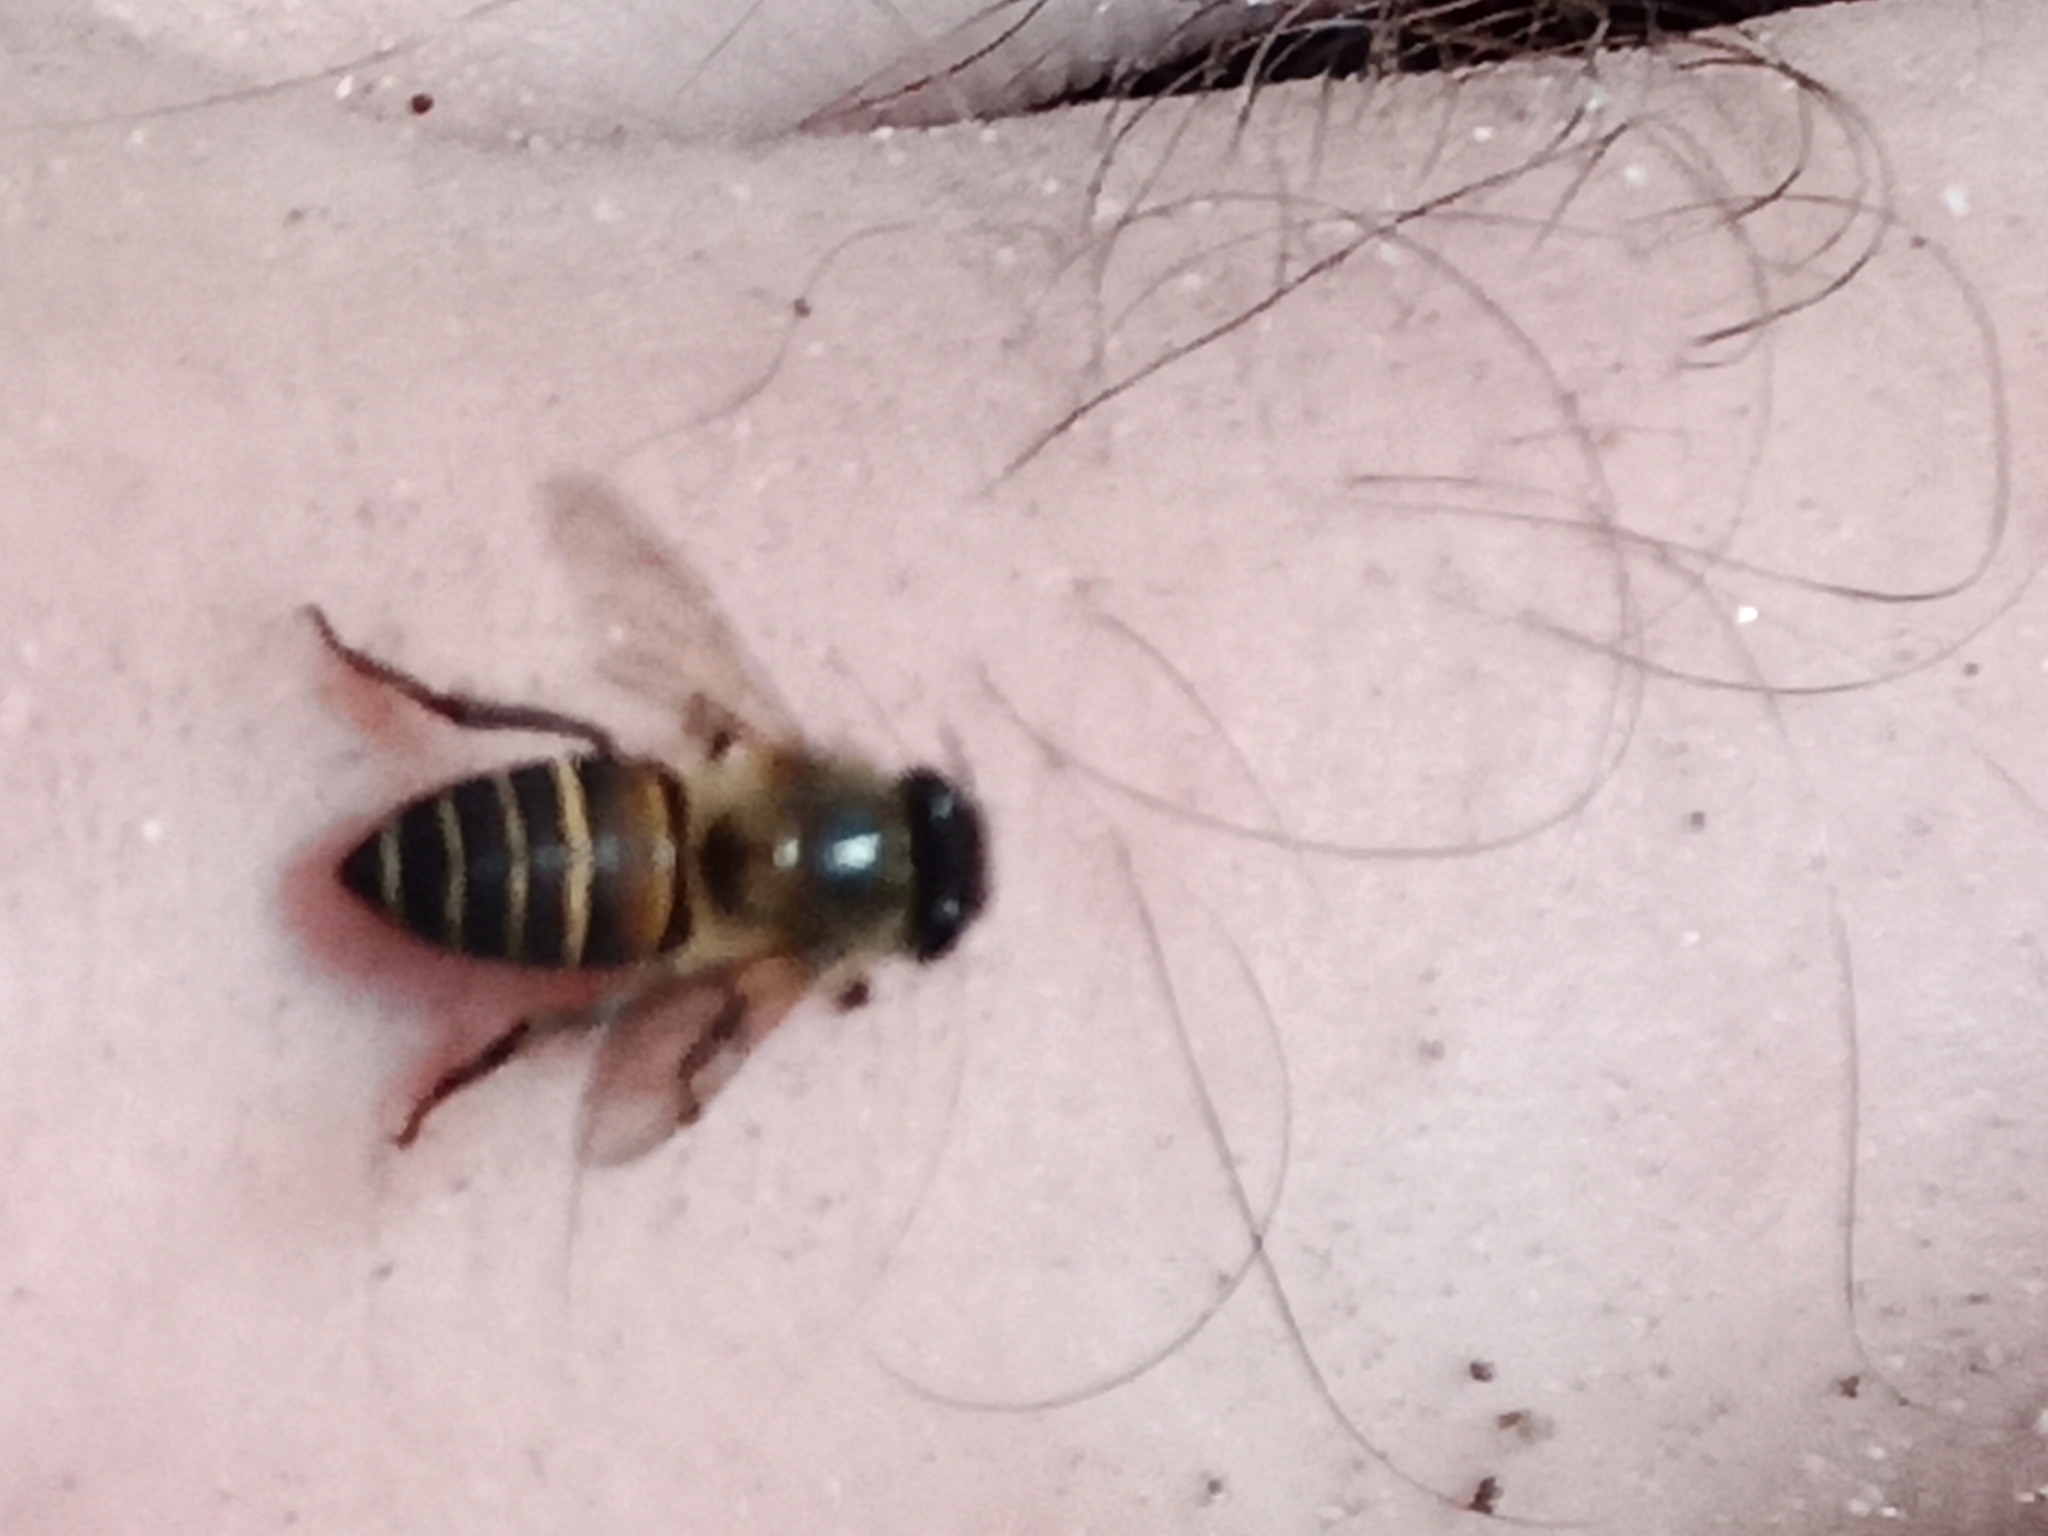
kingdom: Animalia
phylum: Arthropoda
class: Insecta
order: Hymenoptera
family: Apidae
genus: Apis
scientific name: Apis cerana
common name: Honey bee
